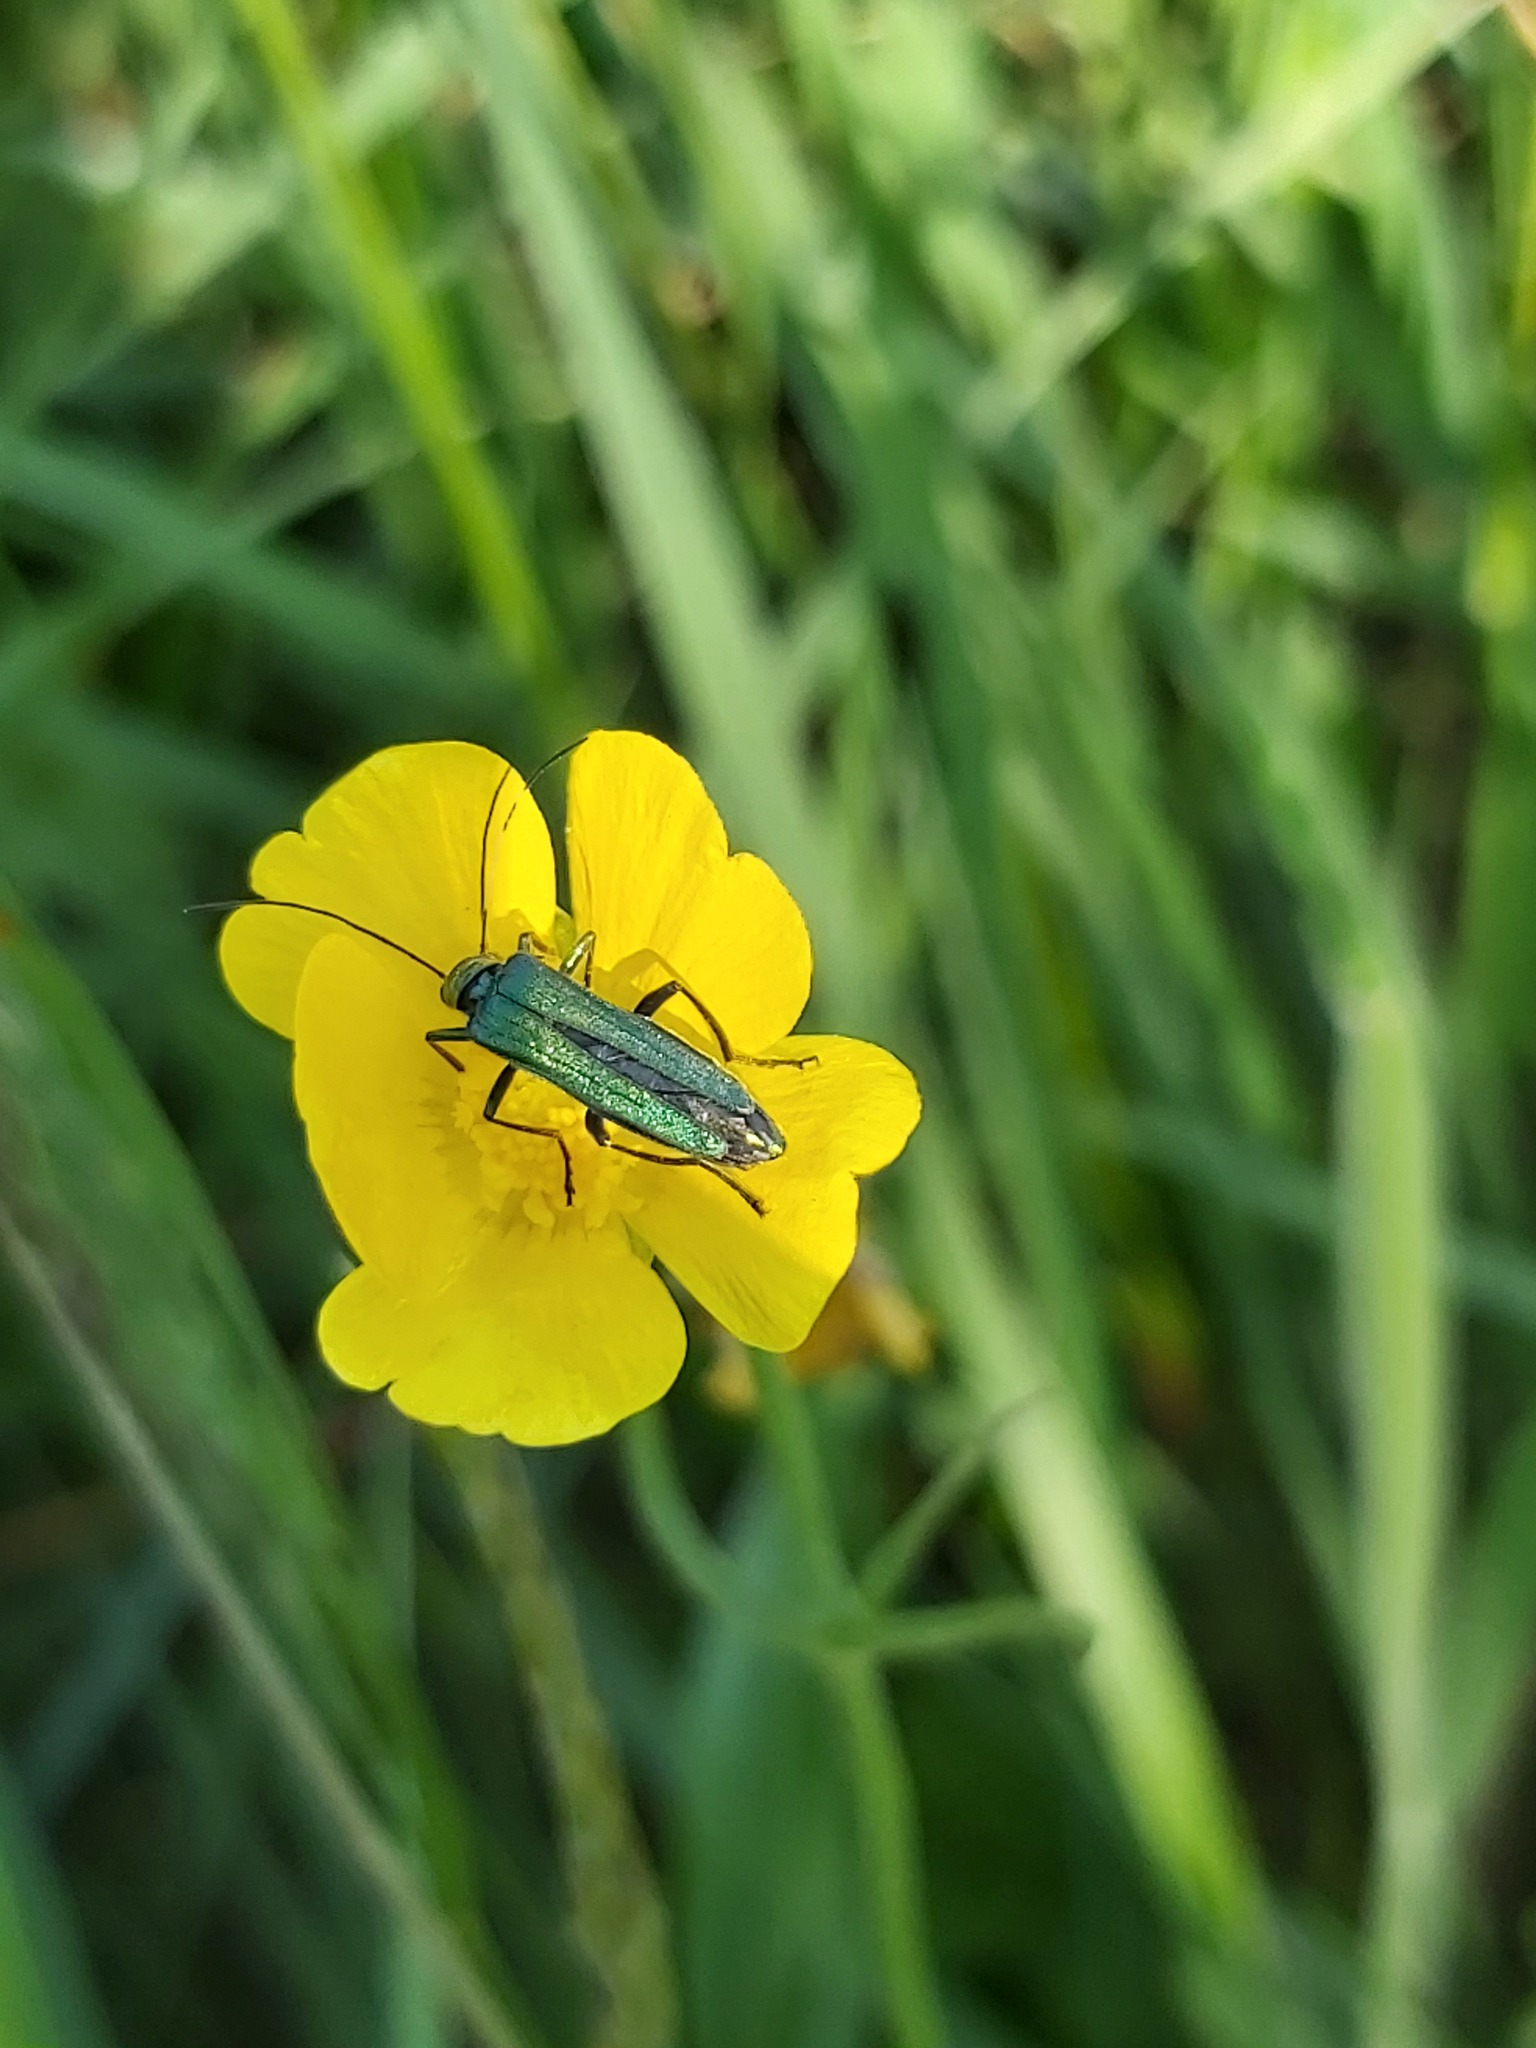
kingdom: Animalia
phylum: Arthropoda
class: Insecta
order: Coleoptera
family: Oedemeridae
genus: Oedemera
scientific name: Oedemera nobilis
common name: Swollen-thighed beetle
